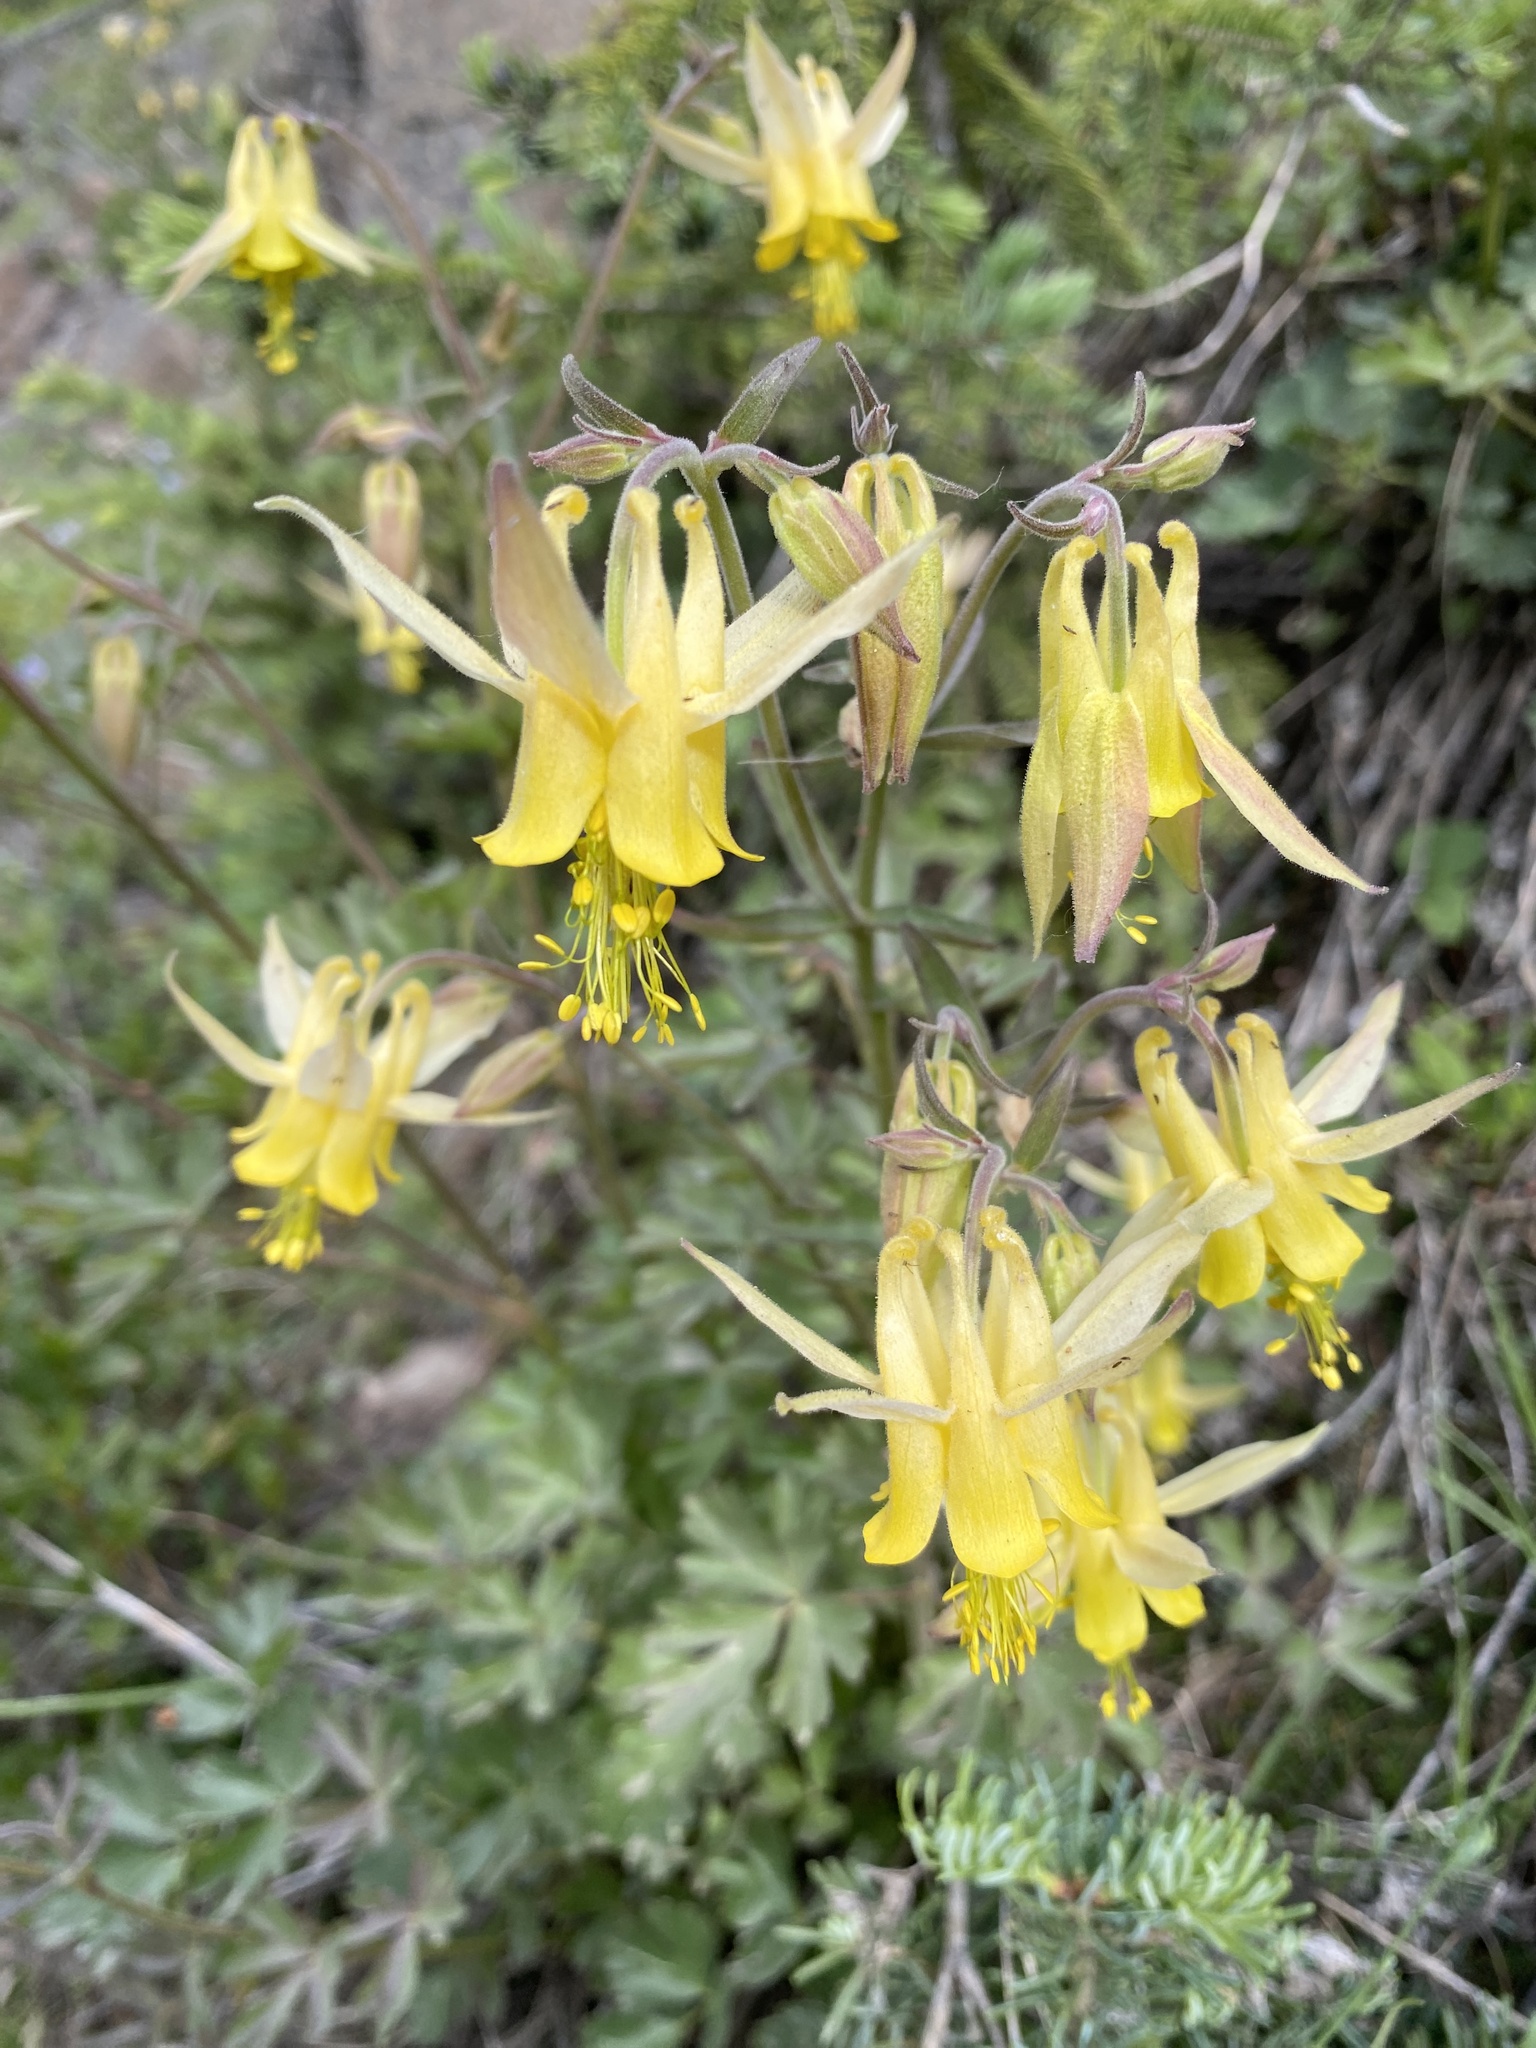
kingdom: Plantae
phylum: Tracheophyta
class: Magnoliopsida
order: Ranunculales
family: Ranunculaceae
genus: Aquilegia
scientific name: Aquilegia flavescens
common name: Yellow columbine
